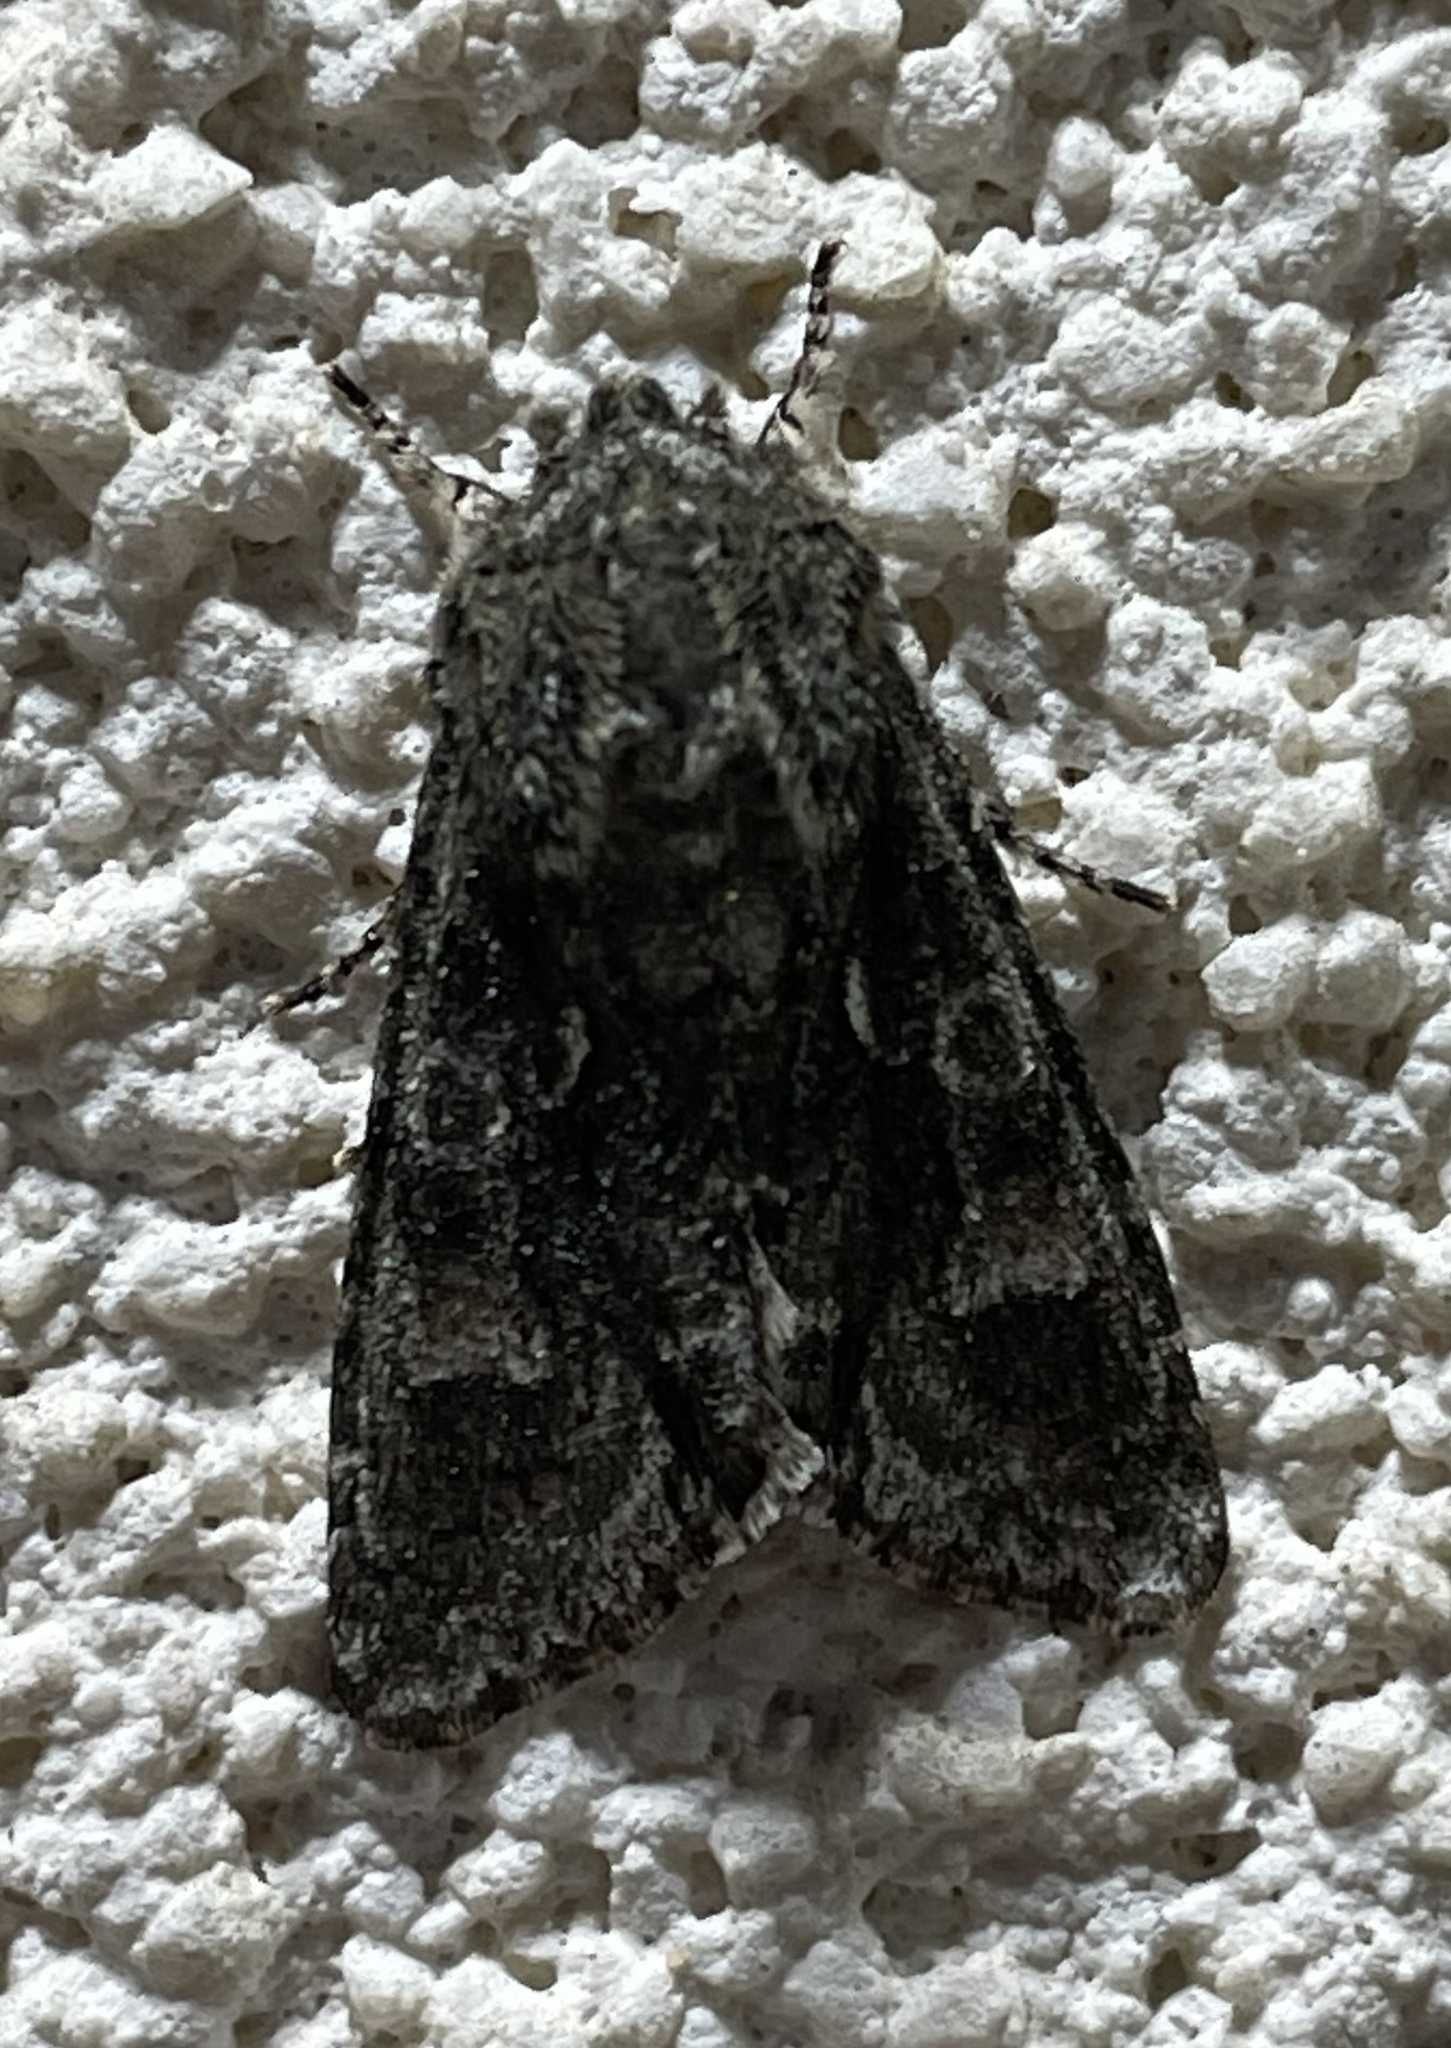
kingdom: Animalia
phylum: Arthropoda
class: Insecta
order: Lepidoptera
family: Noctuidae
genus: Psaphida
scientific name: Psaphida resumens
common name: Figure-eight sallow
